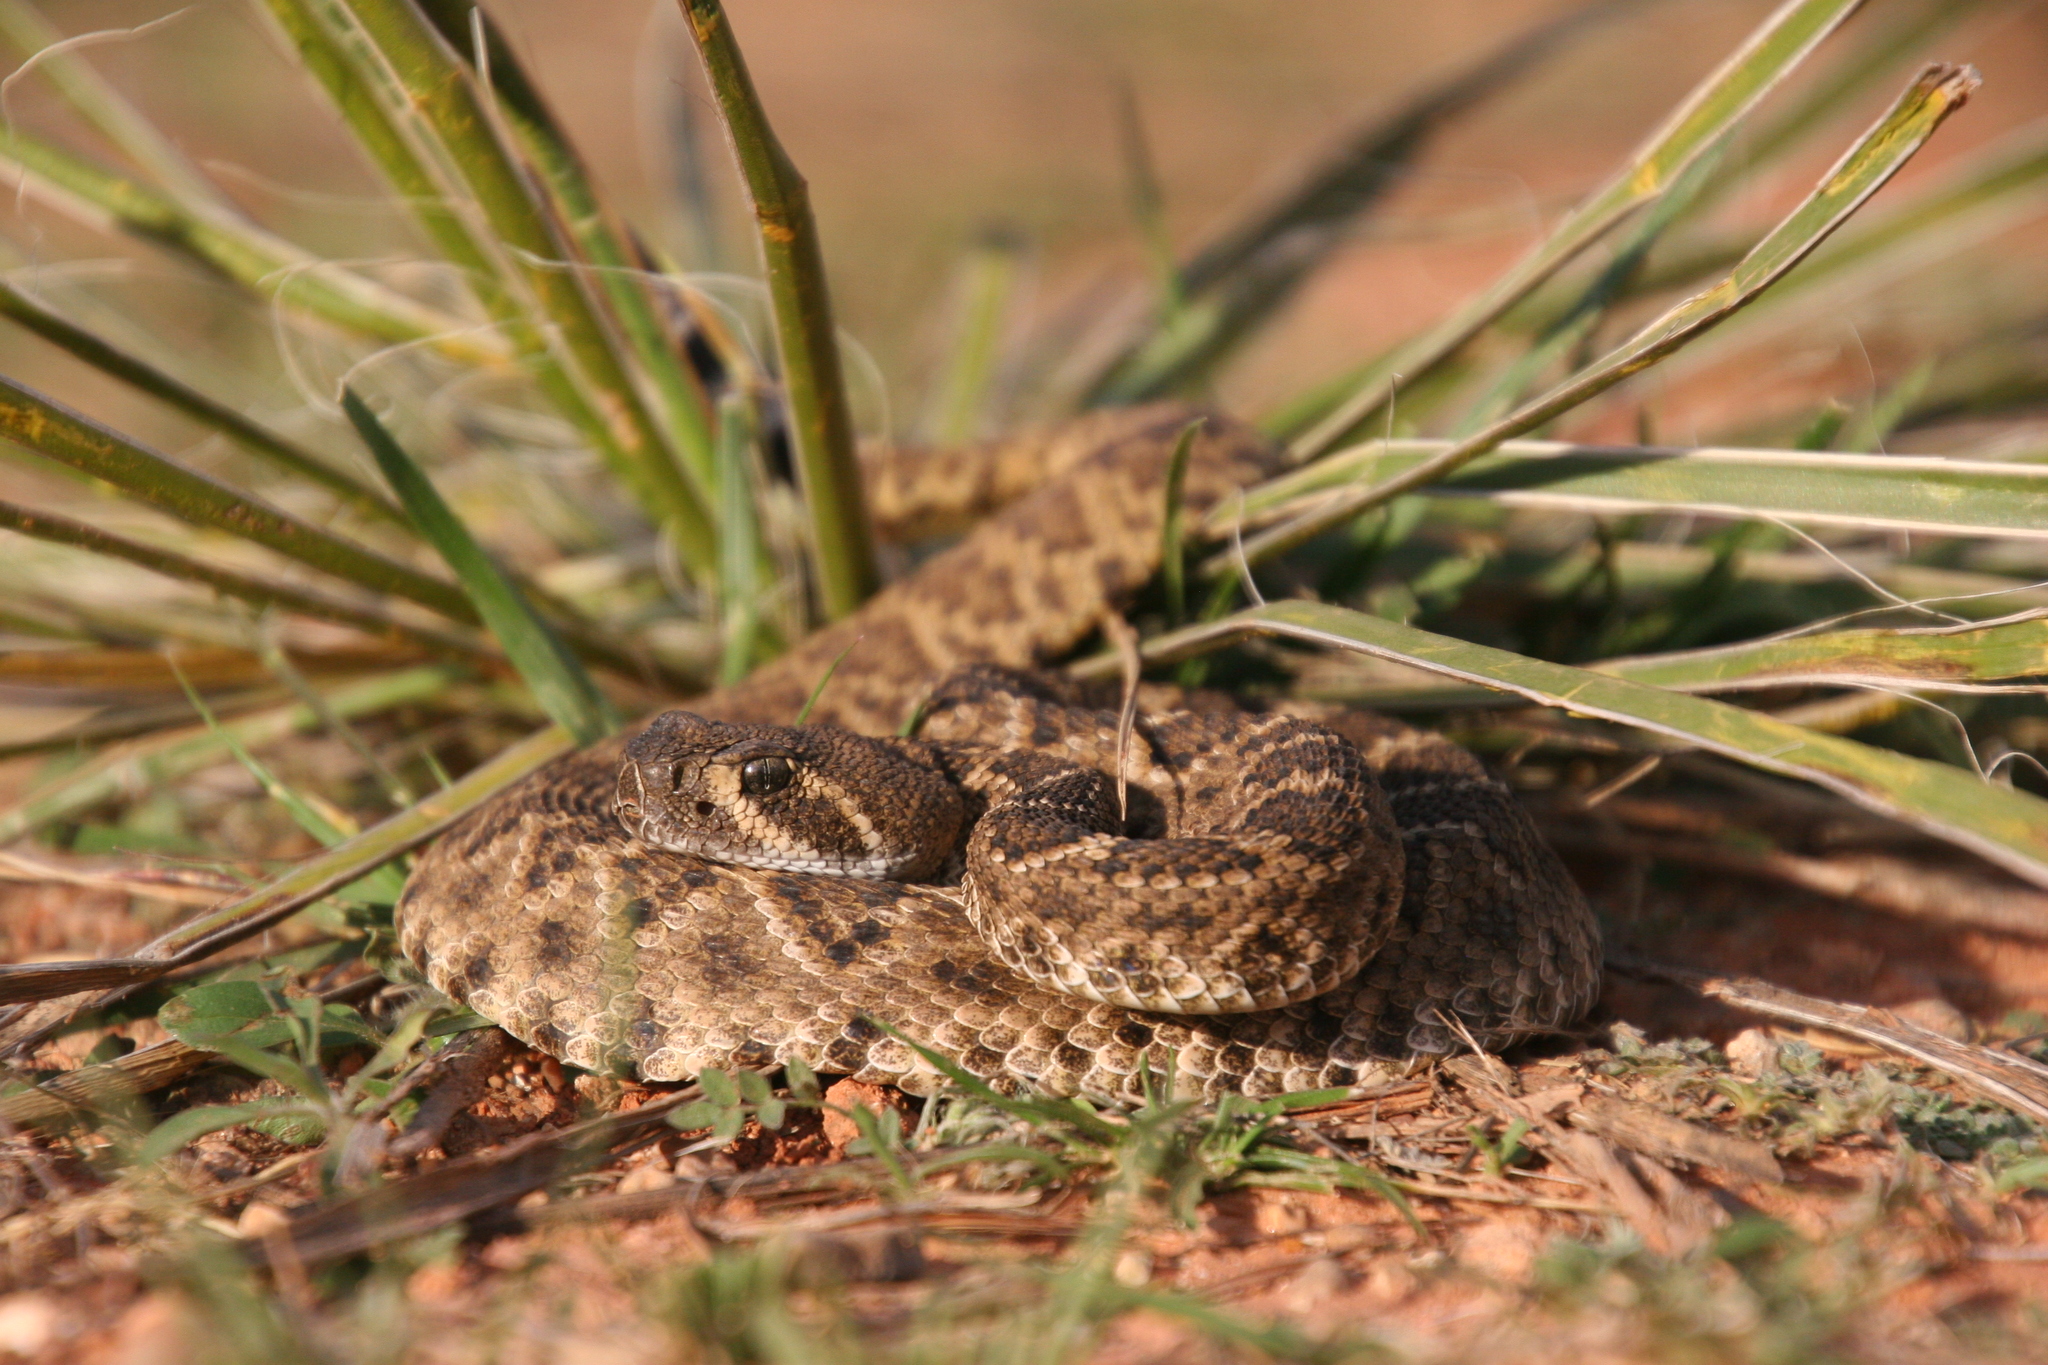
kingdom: Animalia
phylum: Chordata
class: Squamata
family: Viperidae
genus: Crotalus
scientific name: Crotalus atrox
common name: Western diamond-backed rattlesnake
